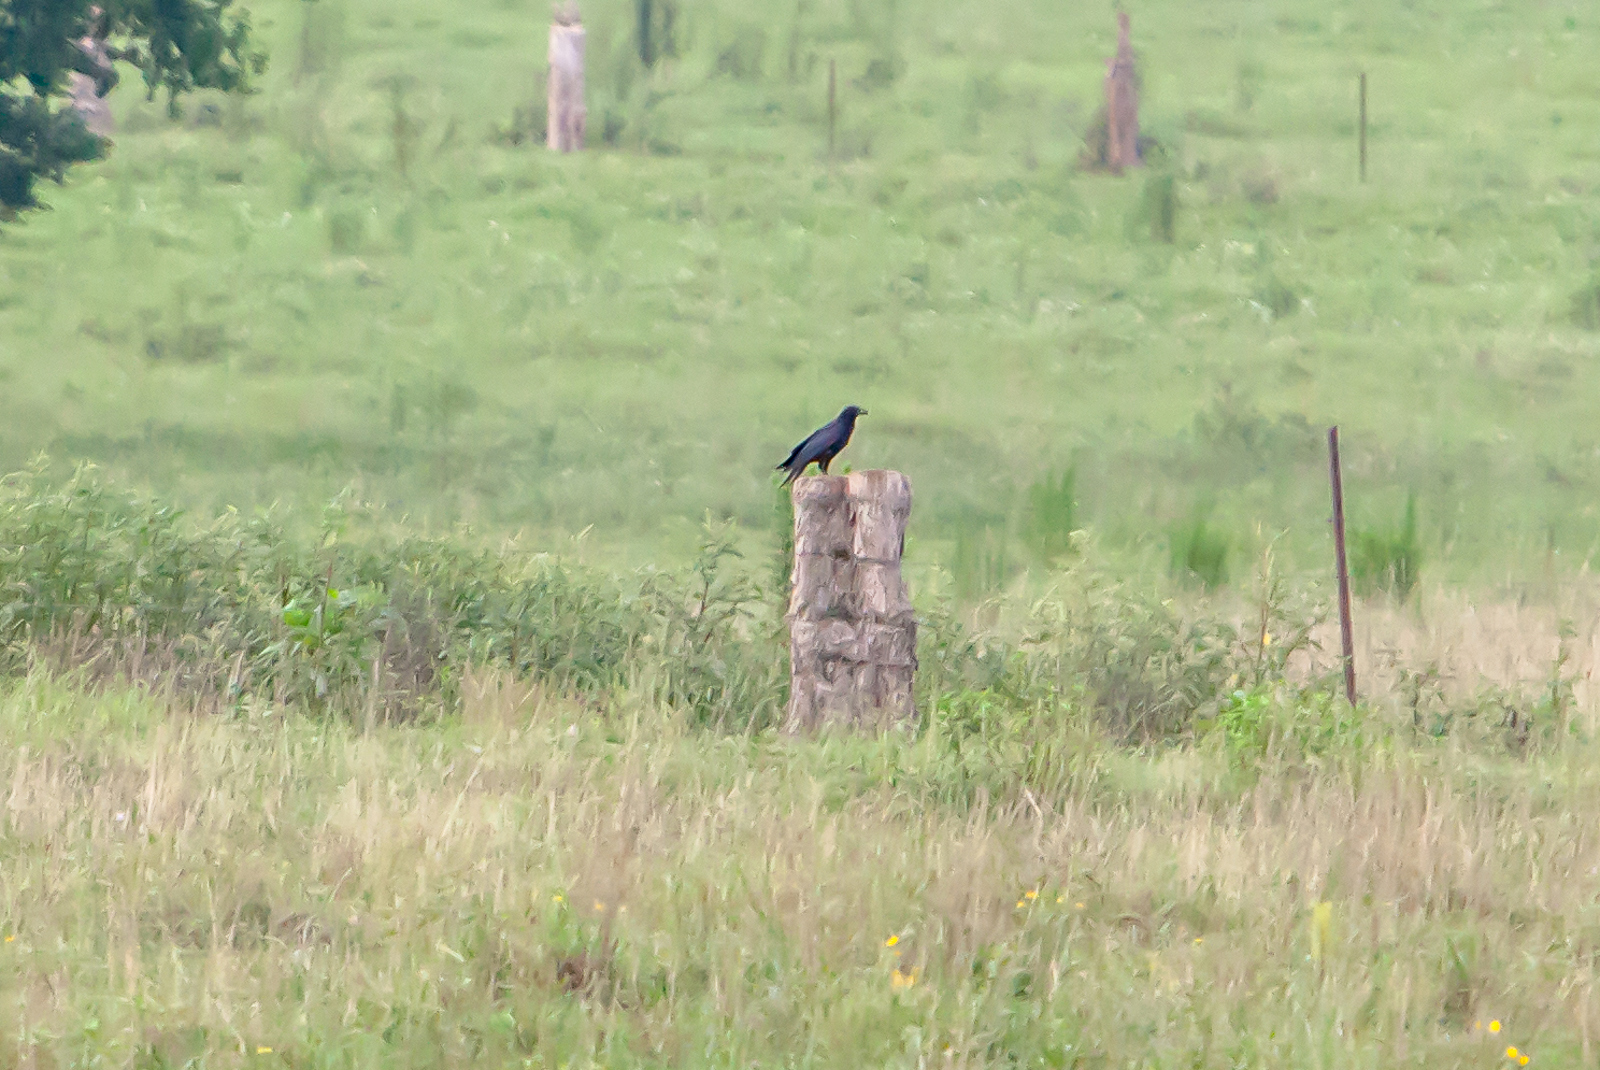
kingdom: Animalia
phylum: Chordata
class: Aves
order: Passeriformes
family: Corvidae
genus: Corvus
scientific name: Corvus brachyrhynchos
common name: American crow
